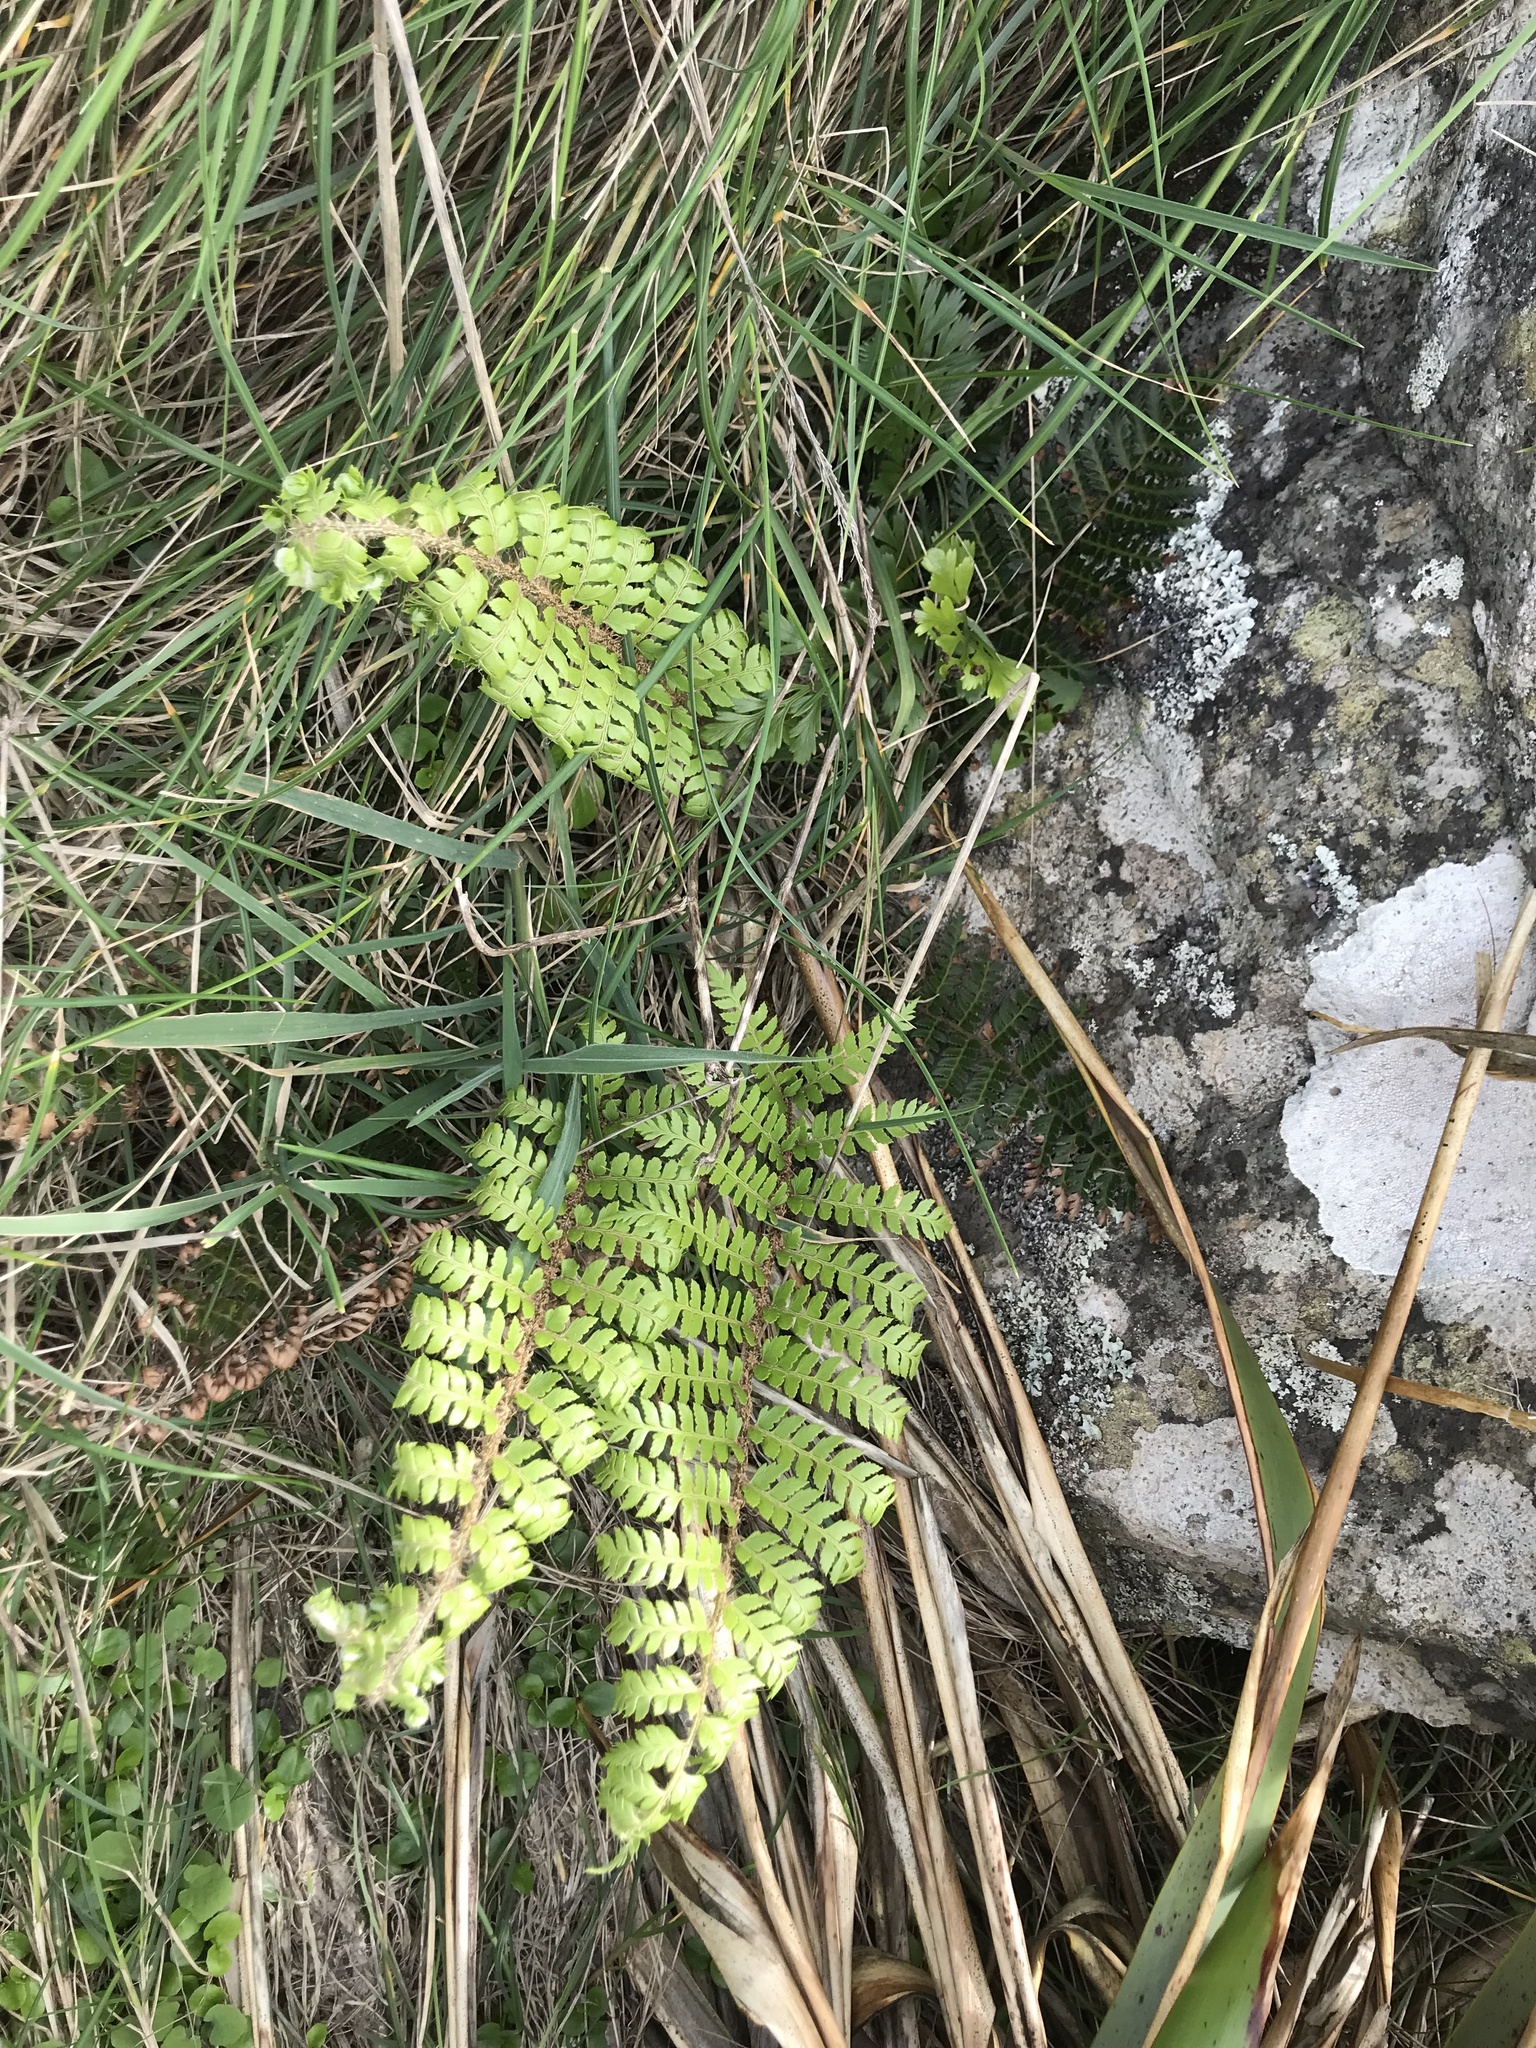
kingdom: Plantae
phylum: Tracheophyta
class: Polypodiopsida
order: Polypodiales
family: Dryopteridaceae
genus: Polystichum
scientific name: Polystichum vestitum
